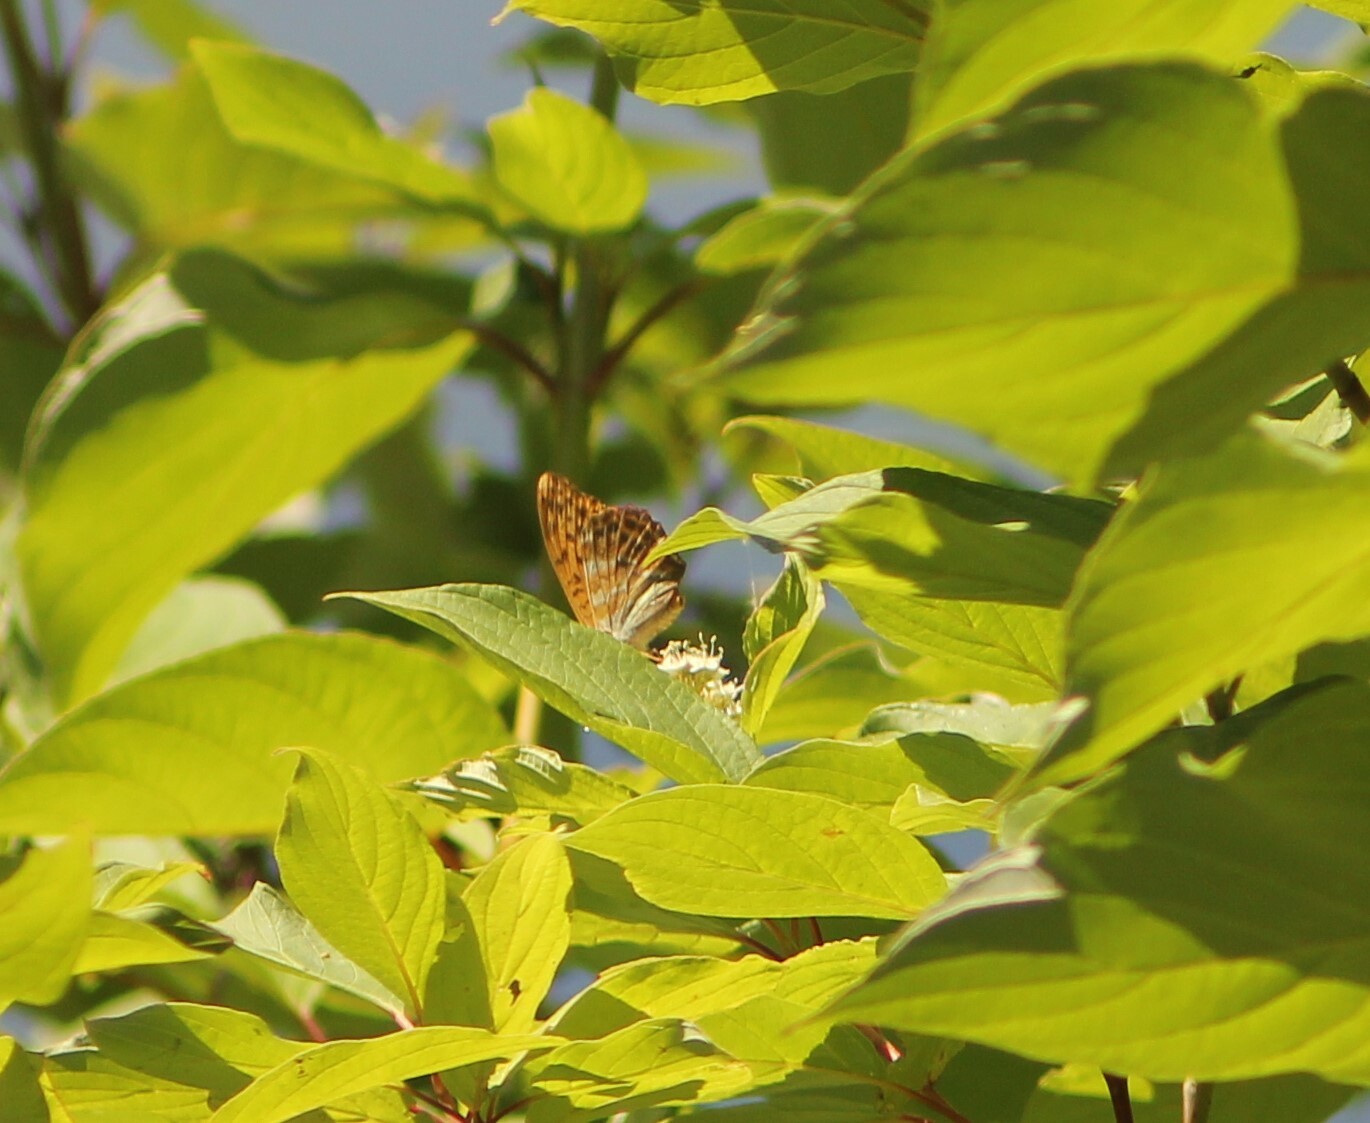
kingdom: Animalia
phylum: Arthropoda
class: Insecta
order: Lepidoptera
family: Nymphalidae
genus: Argynnis
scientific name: Argynnis paphia
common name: Silver-washed fritillary
